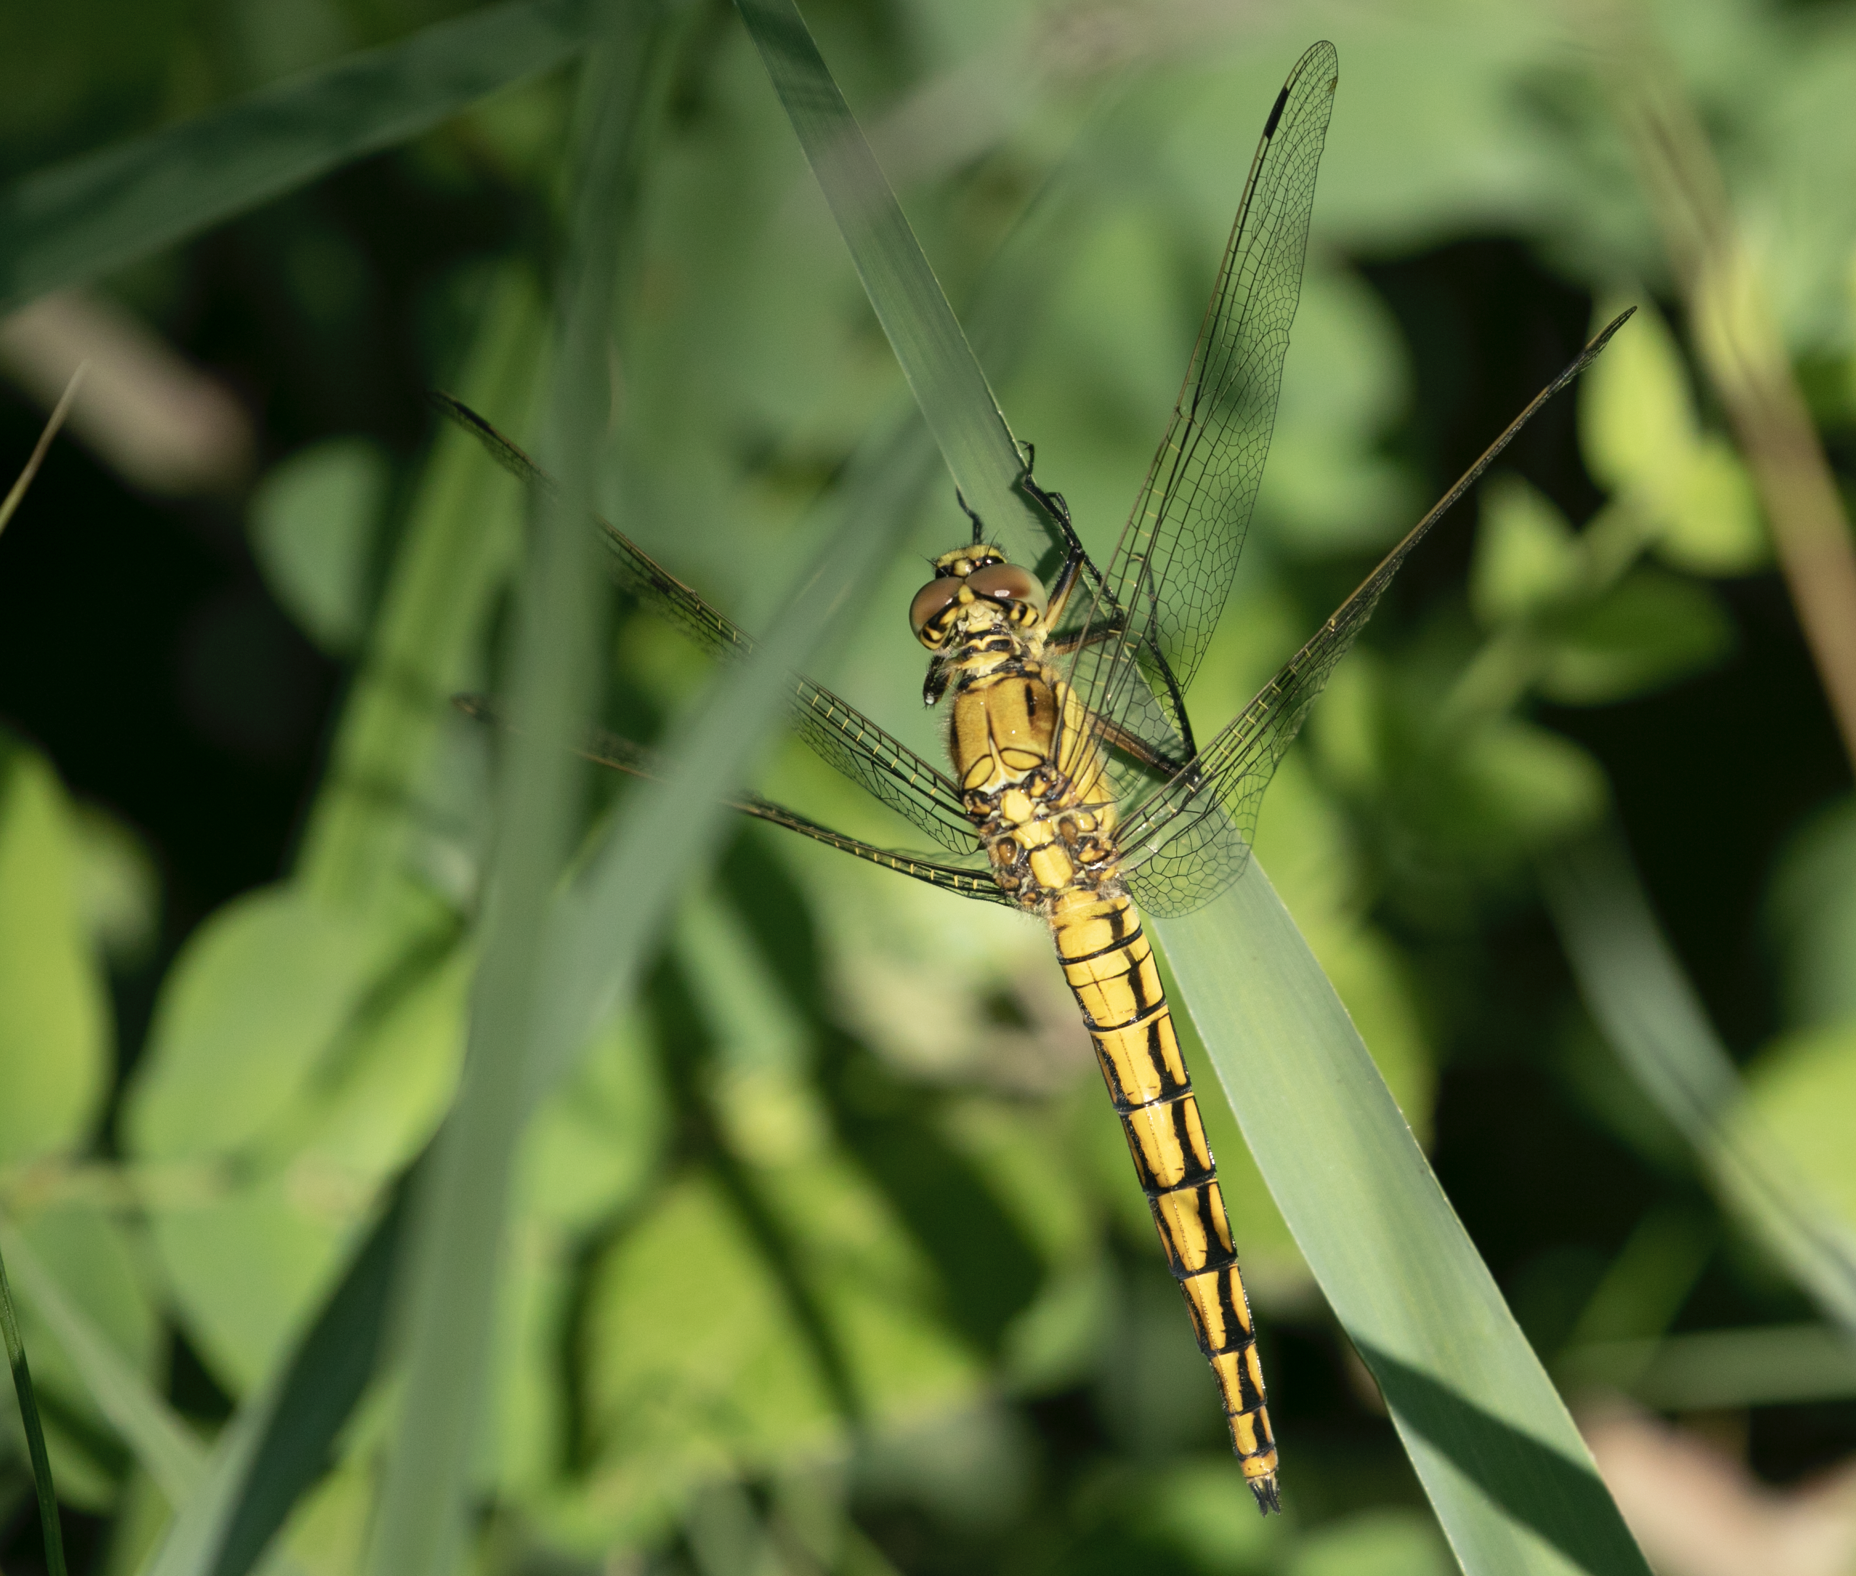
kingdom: Animalia
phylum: Arthropoda
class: Insecta
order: Odonata
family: Libellulidae
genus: Orthetrum
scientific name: Orthetrum cancellatum
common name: Black-tailed skimmer
